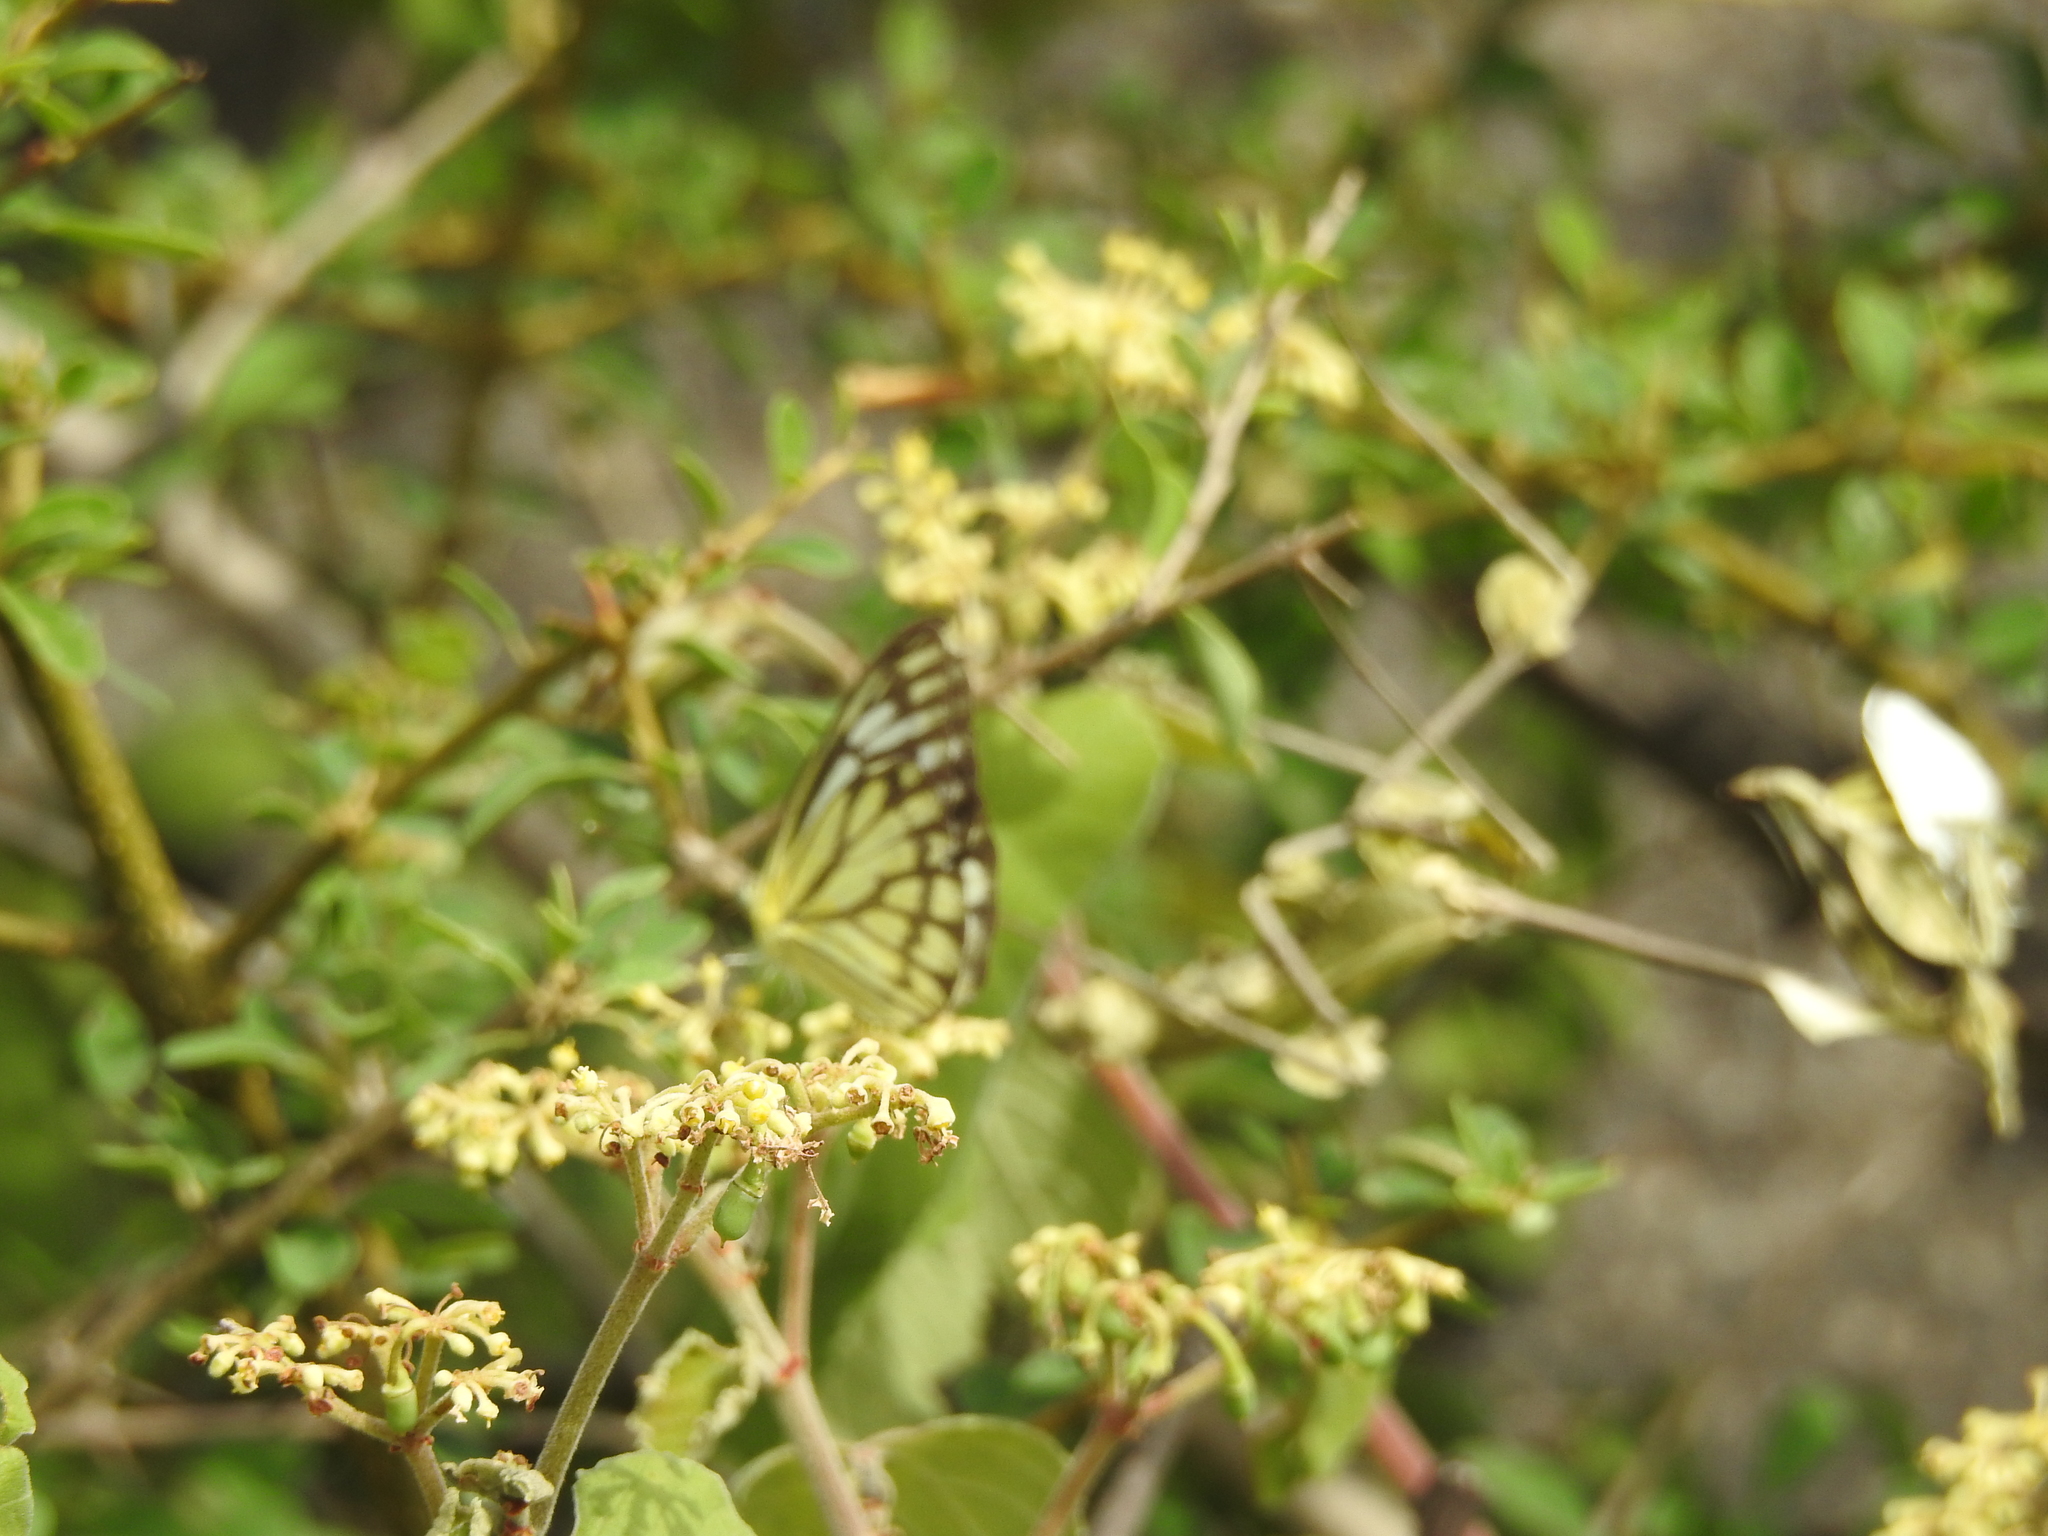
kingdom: Animalia
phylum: Arthropoda
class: Insecta
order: Lepidoptera
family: Pieridae
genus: Cepora
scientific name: Cepora nerissa
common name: Common gull
